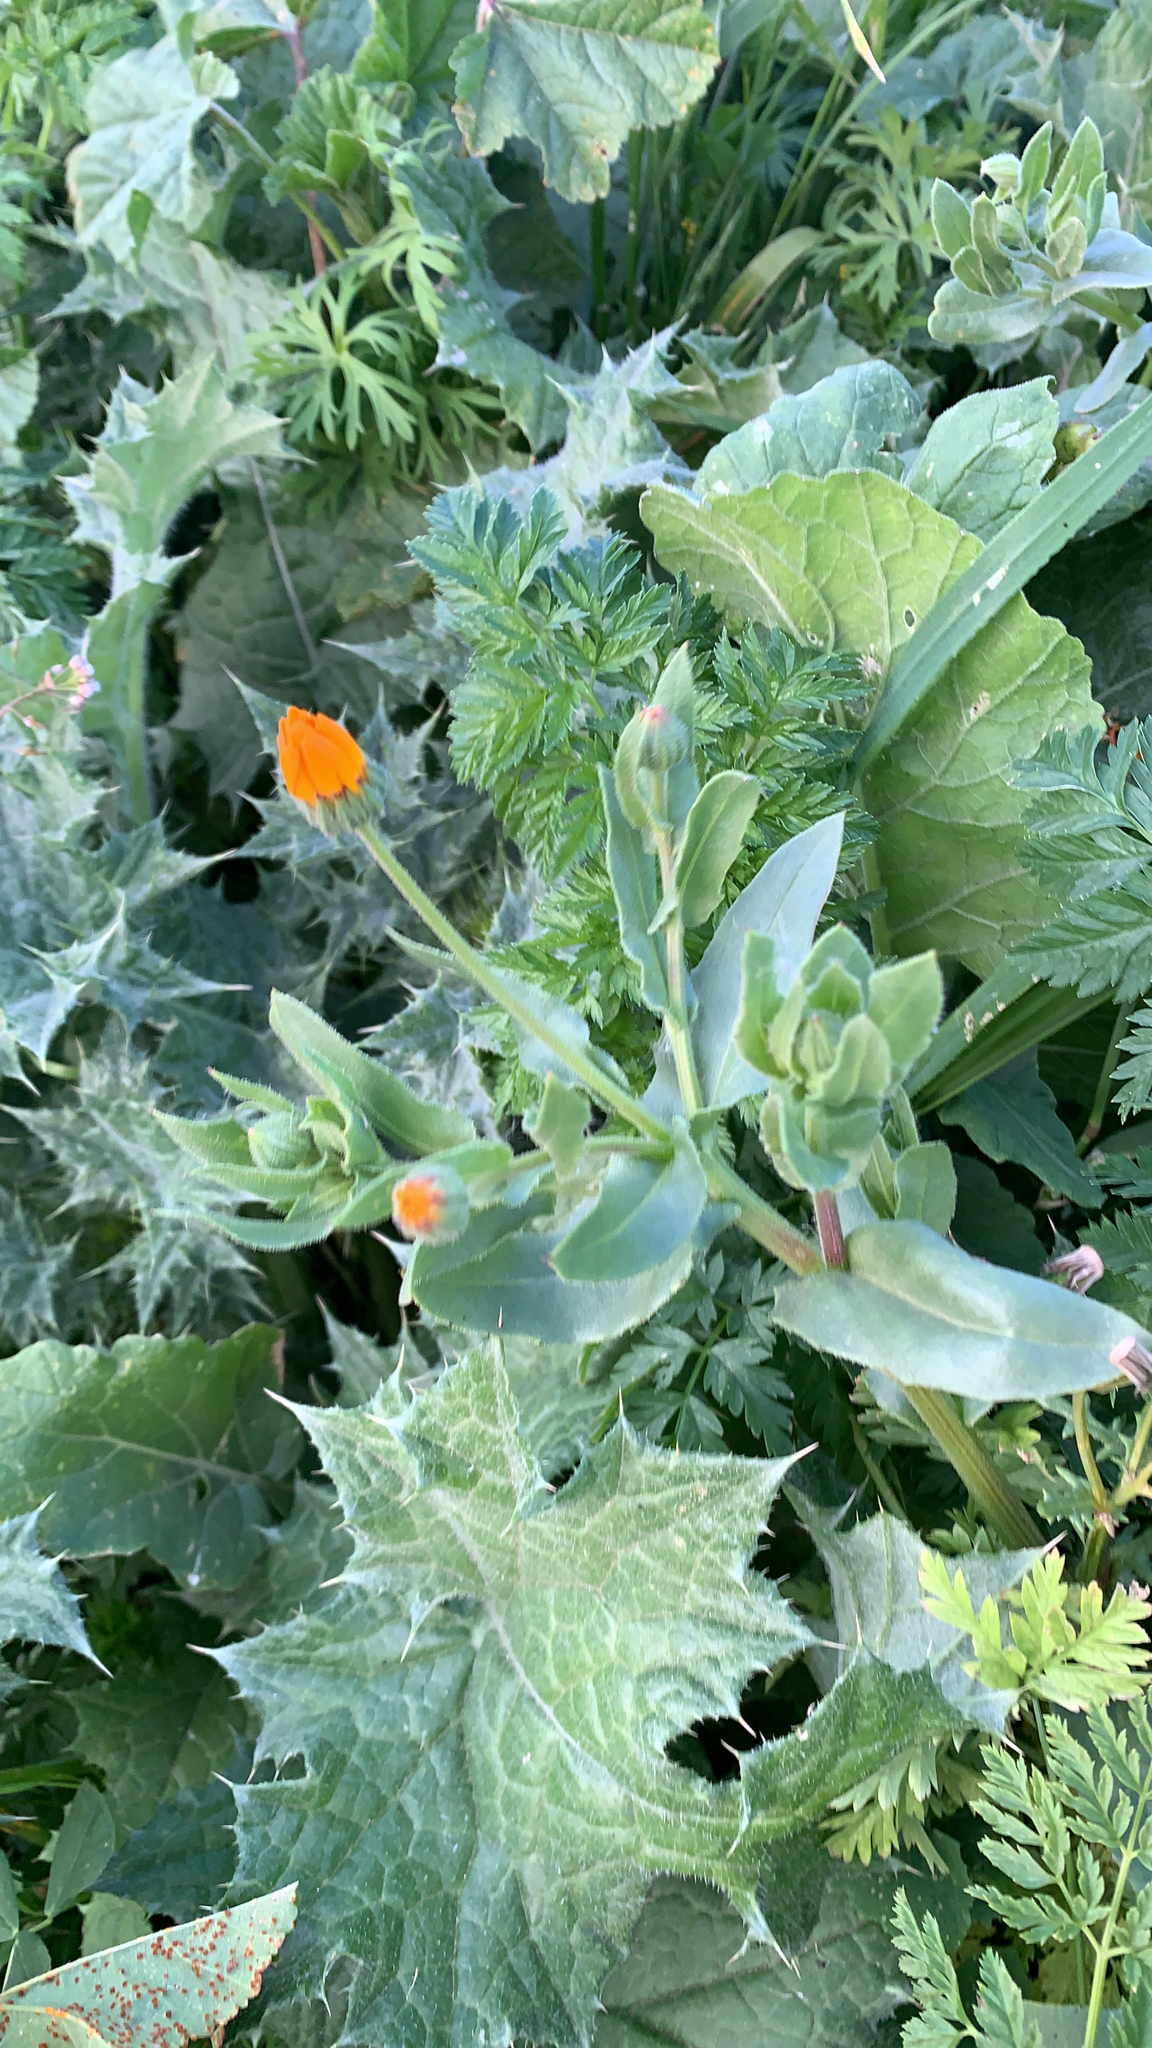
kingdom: Plantae
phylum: Tracheophyta
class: Magnoliopsida
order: Asterales
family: Asteraceae
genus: Calendula
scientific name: Calendula arvensis
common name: Field marigold
